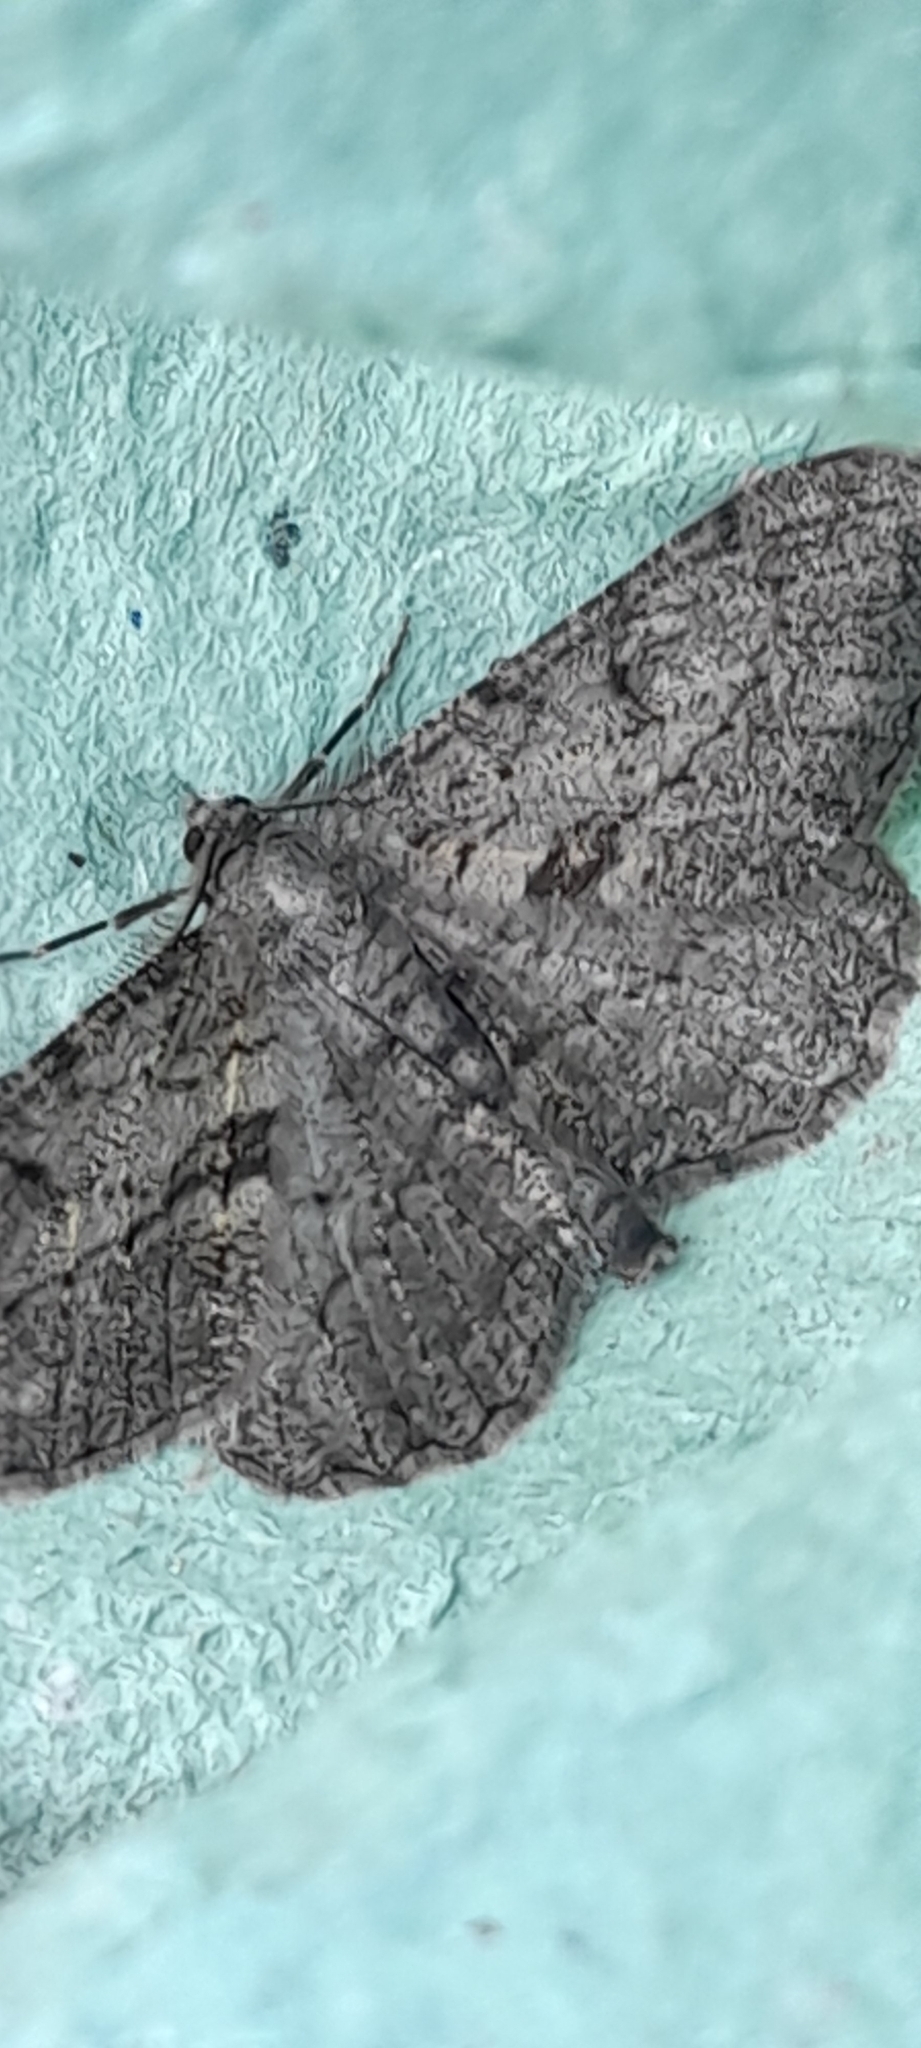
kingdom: Animalia
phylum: Arthropoda
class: Insecta
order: Lepidoptera
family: Geometridae
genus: Peribatodes
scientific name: Peribatodes rhomboidaria
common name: Willow beauty
